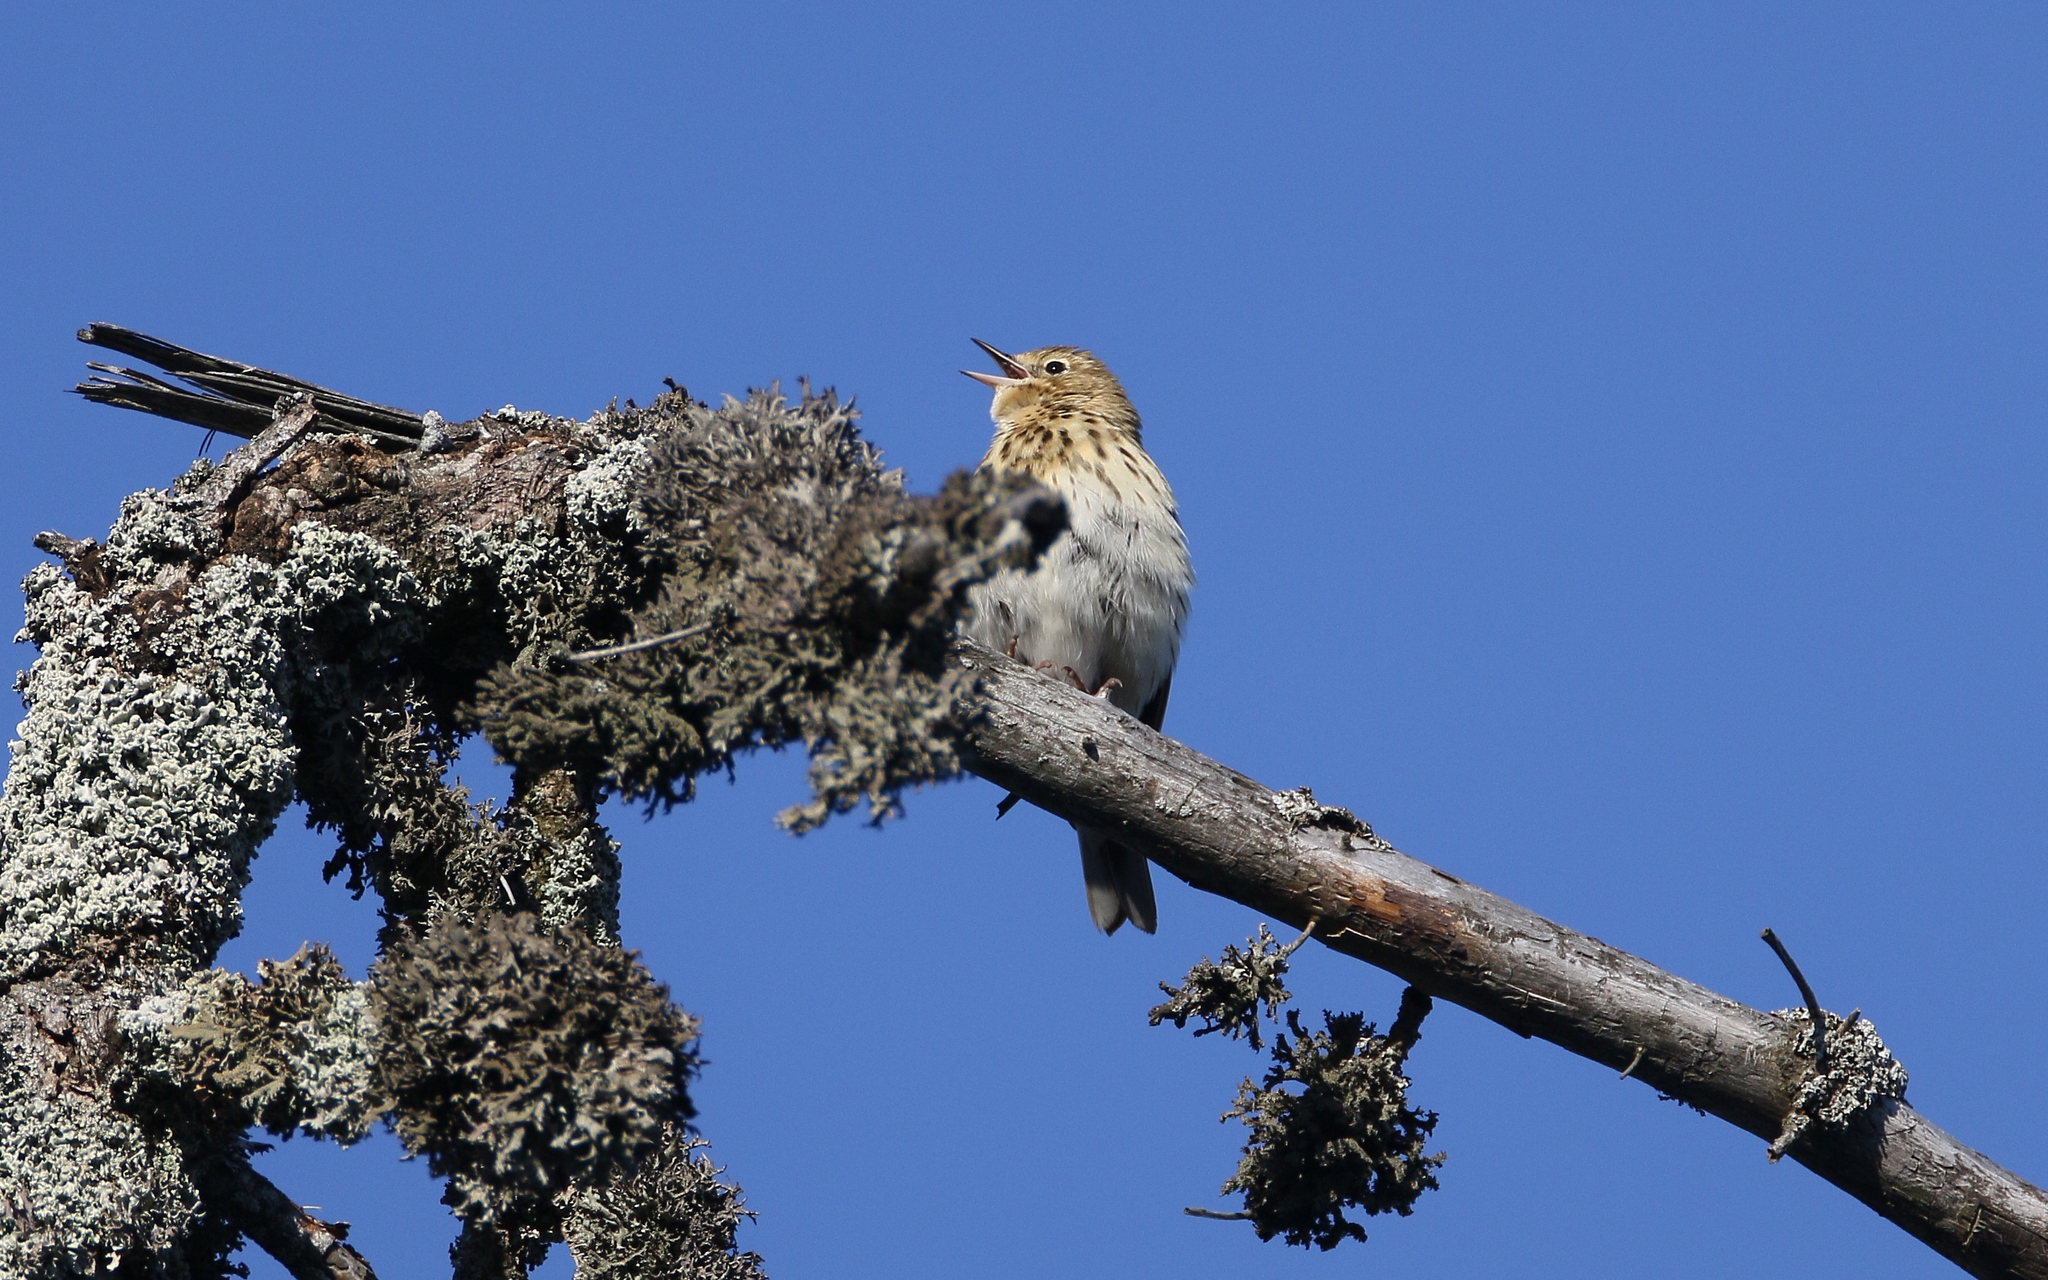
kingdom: Animalia
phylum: Chordata
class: Aves
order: Passeriformes
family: Motacillidae
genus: Anthus
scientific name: Anthus trivialis
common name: Tree pipit
